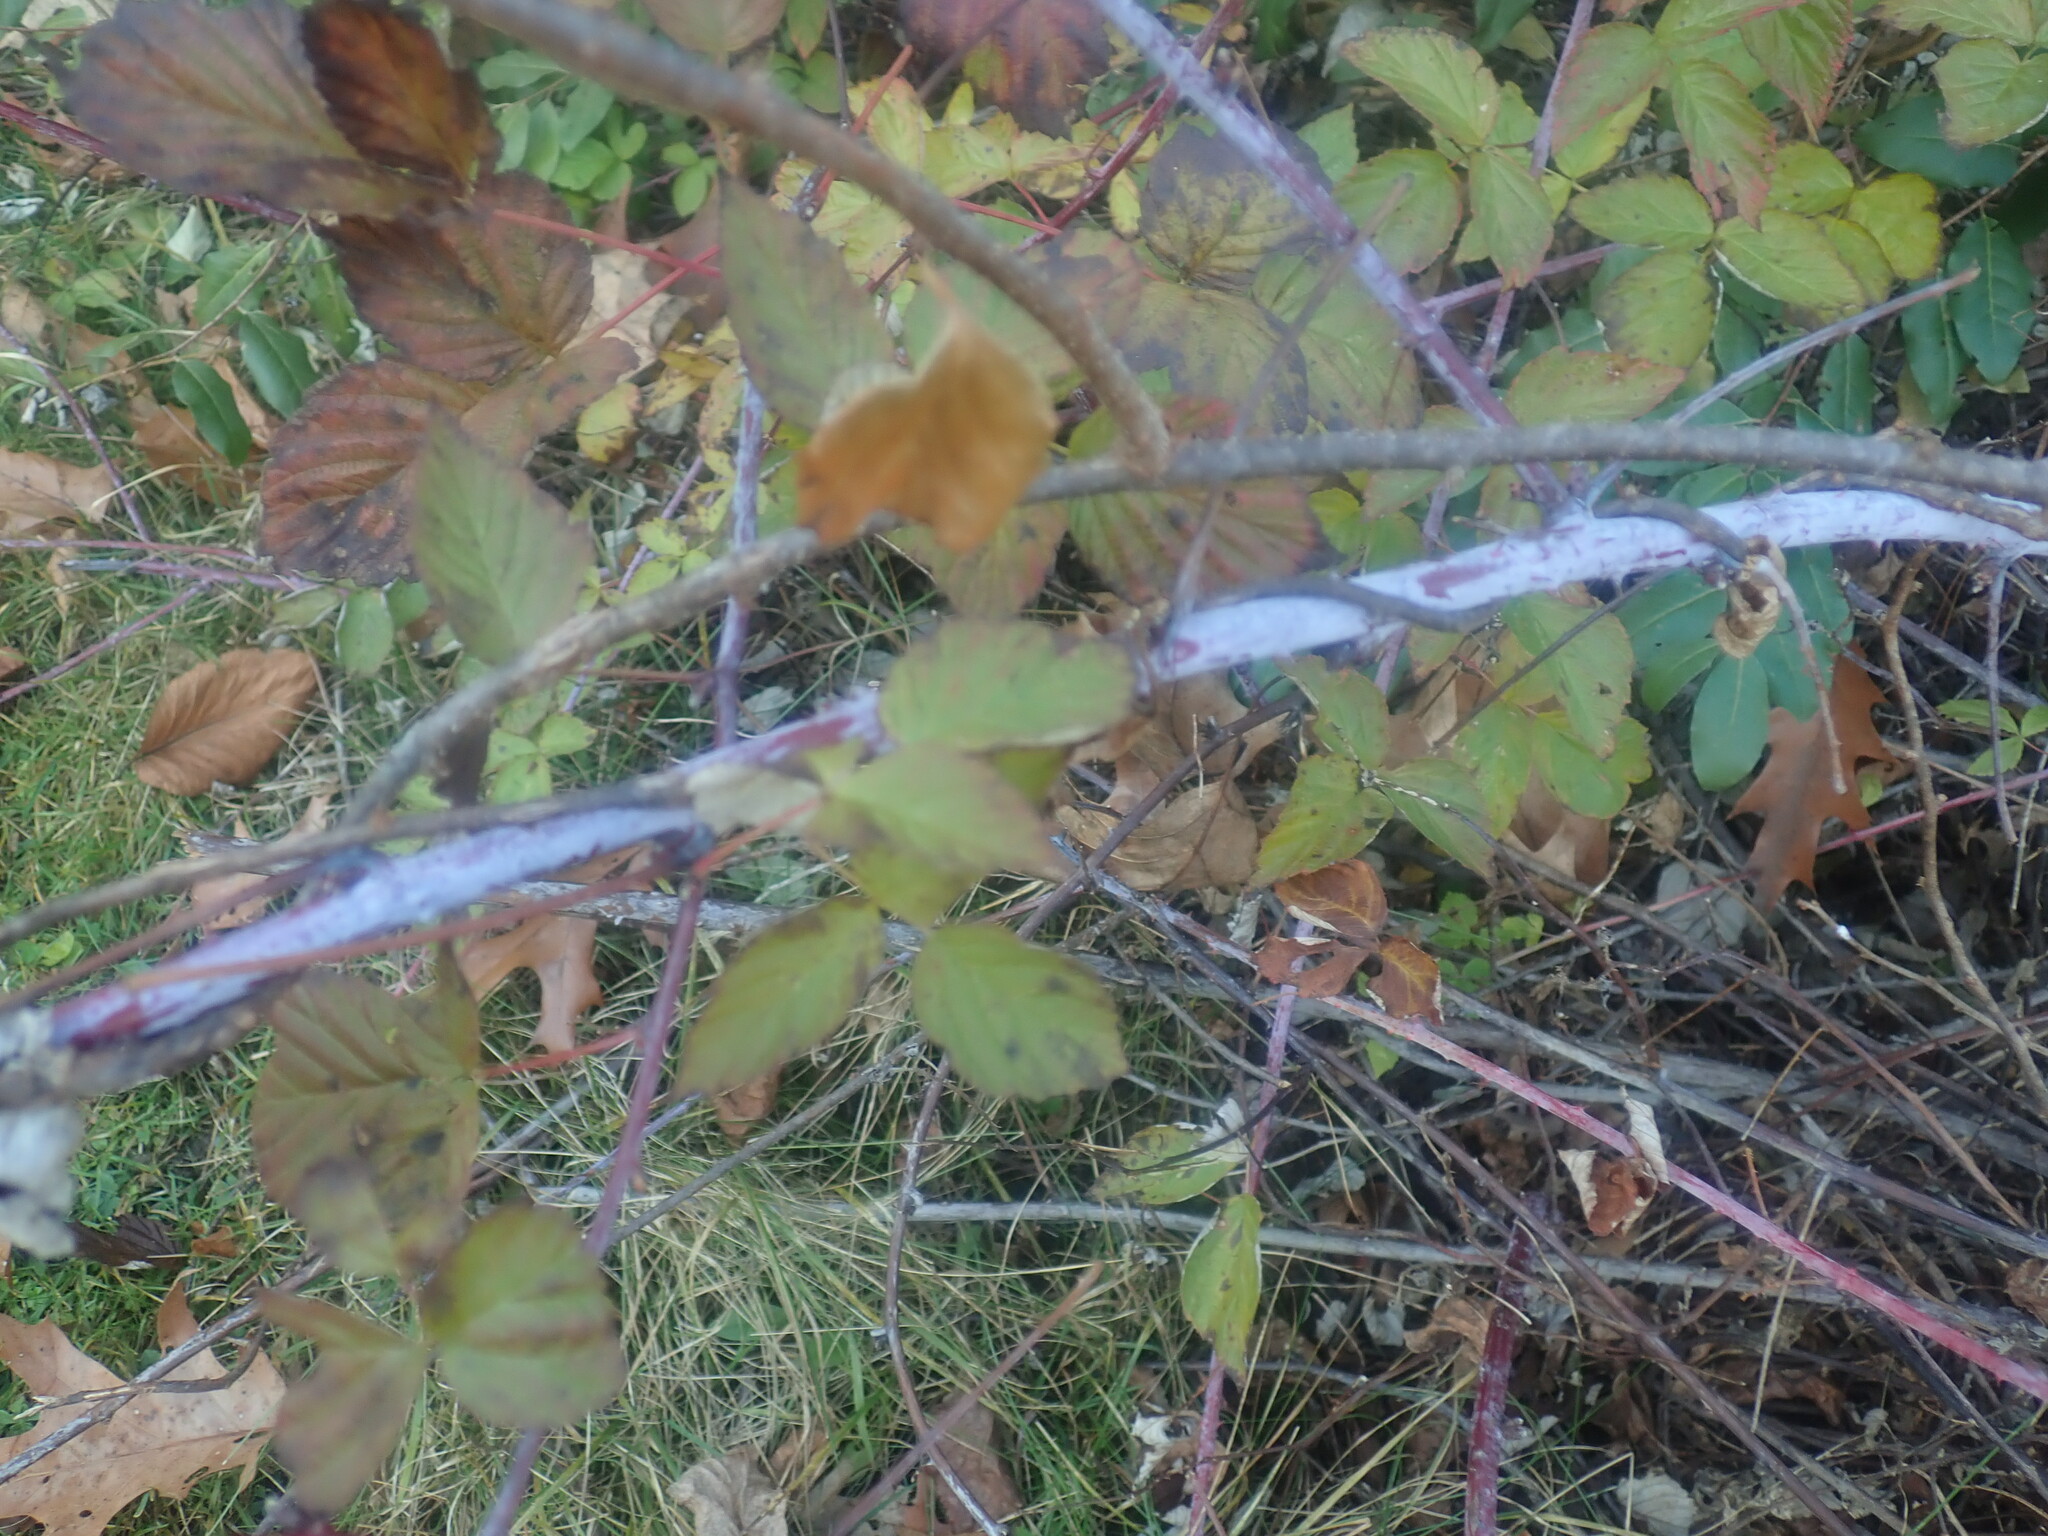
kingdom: Plantae
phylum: Tracheophyta
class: Magnoliopsida
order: Rosales
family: Rosaceae
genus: Rubus
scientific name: Rubus occidentalis
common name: Black raspberry
